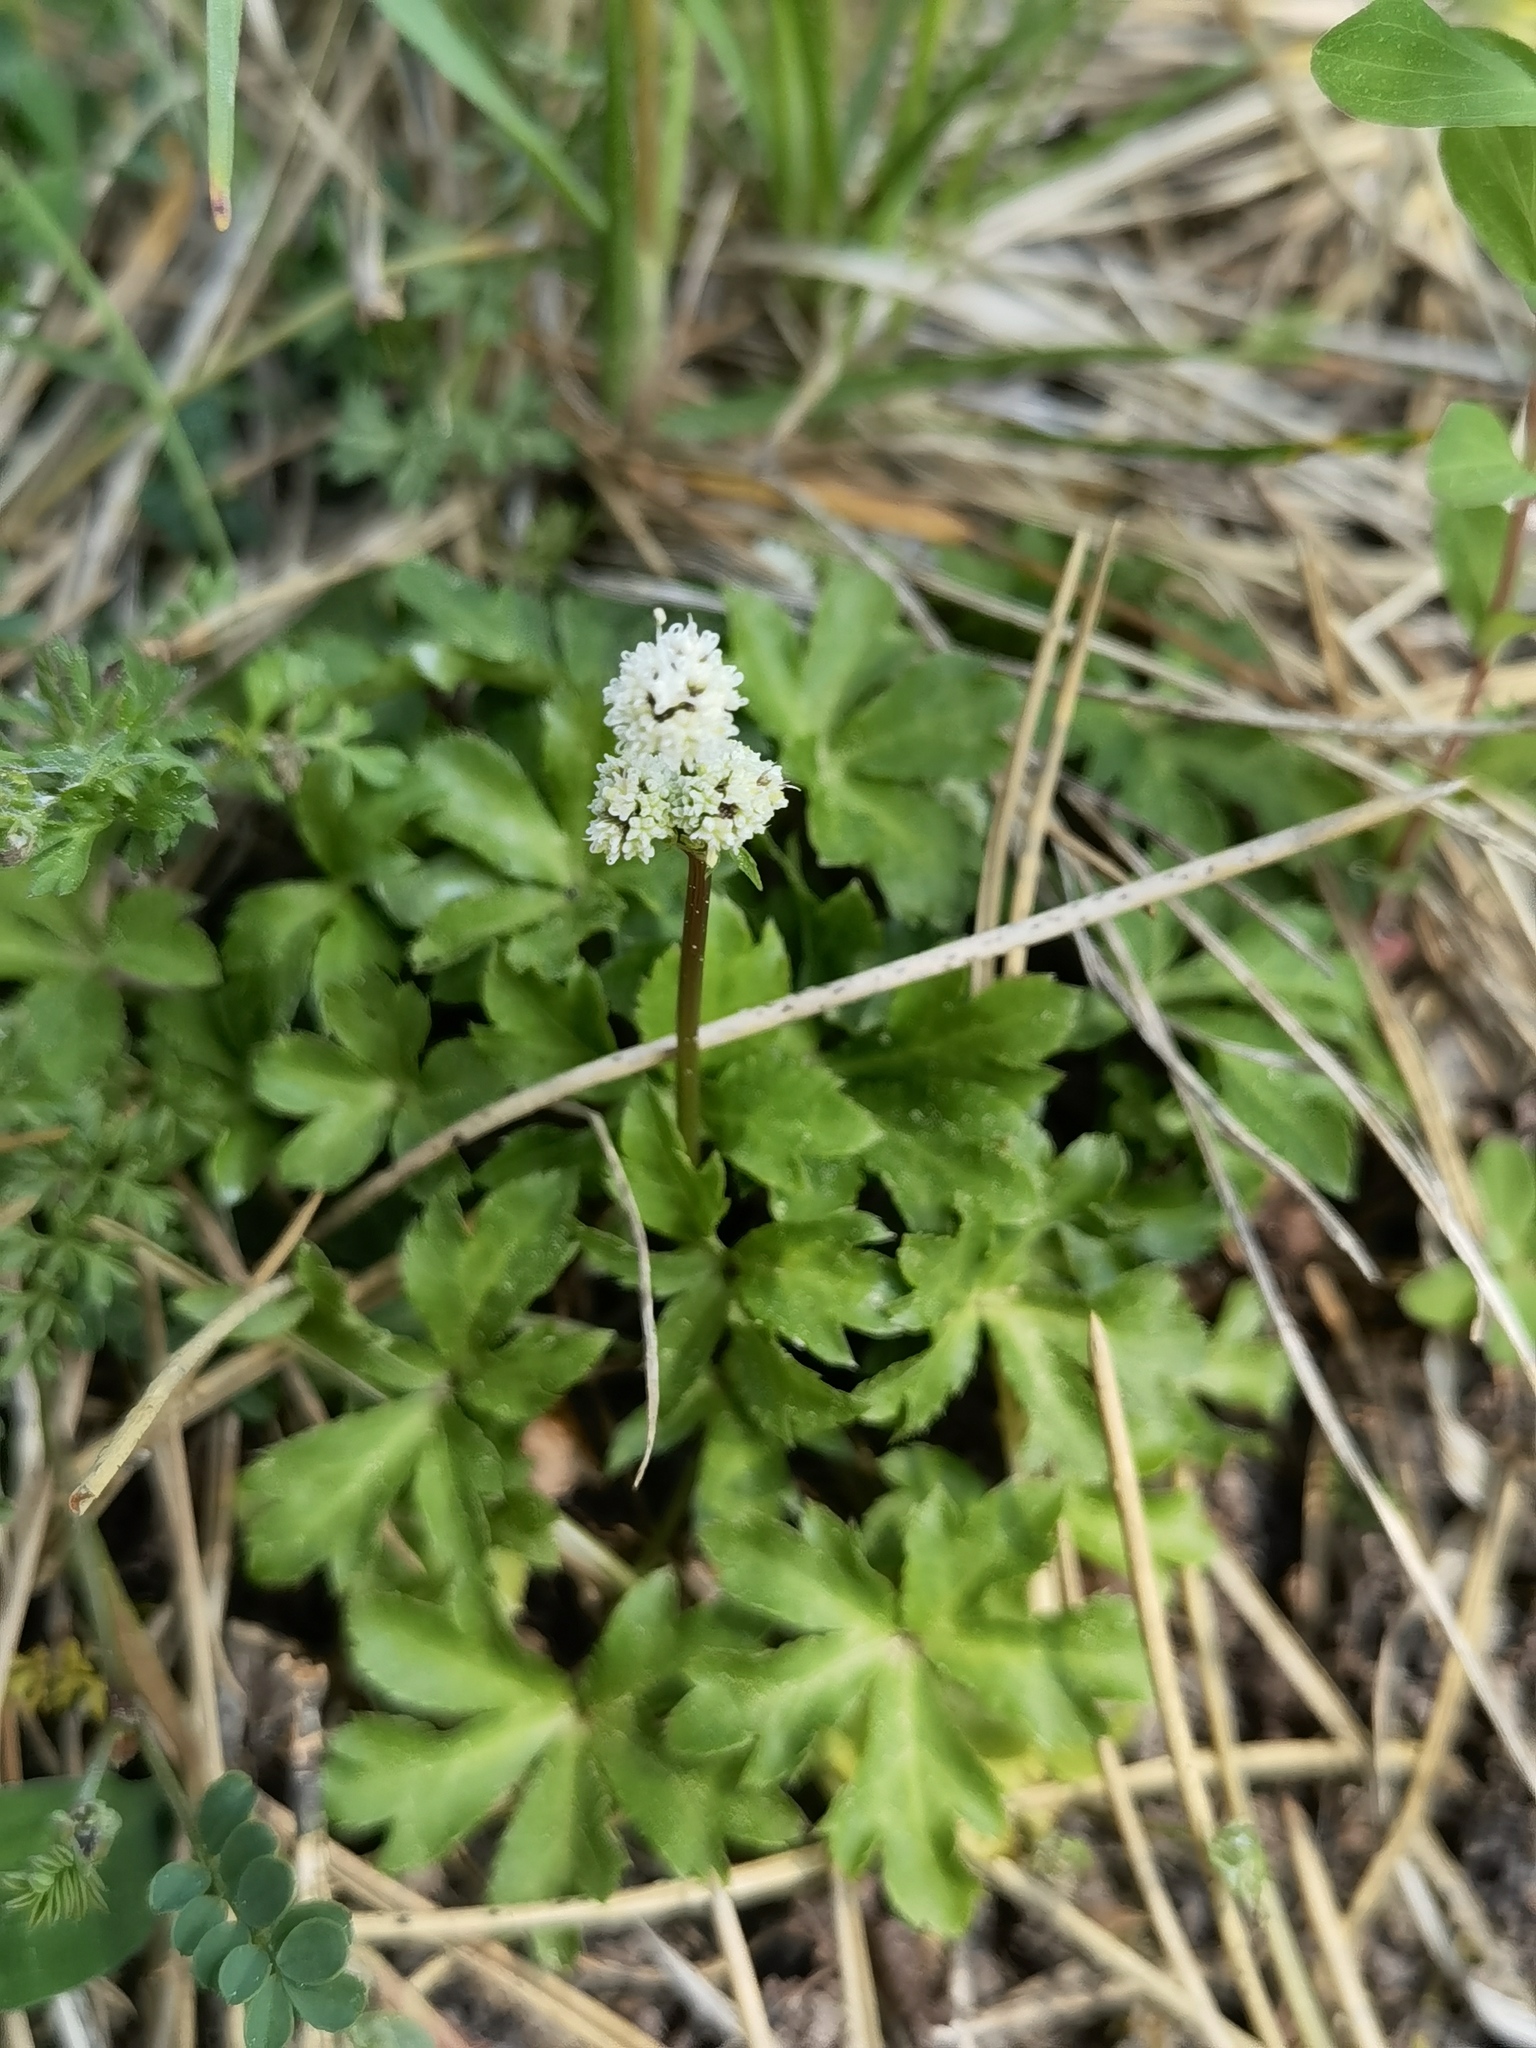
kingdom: Plantae
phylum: Tracheophyta
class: Magnoliopsida
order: Apiales
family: Apiaceae
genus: Sanicula
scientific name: Sanicula europaea
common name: Sanicle
